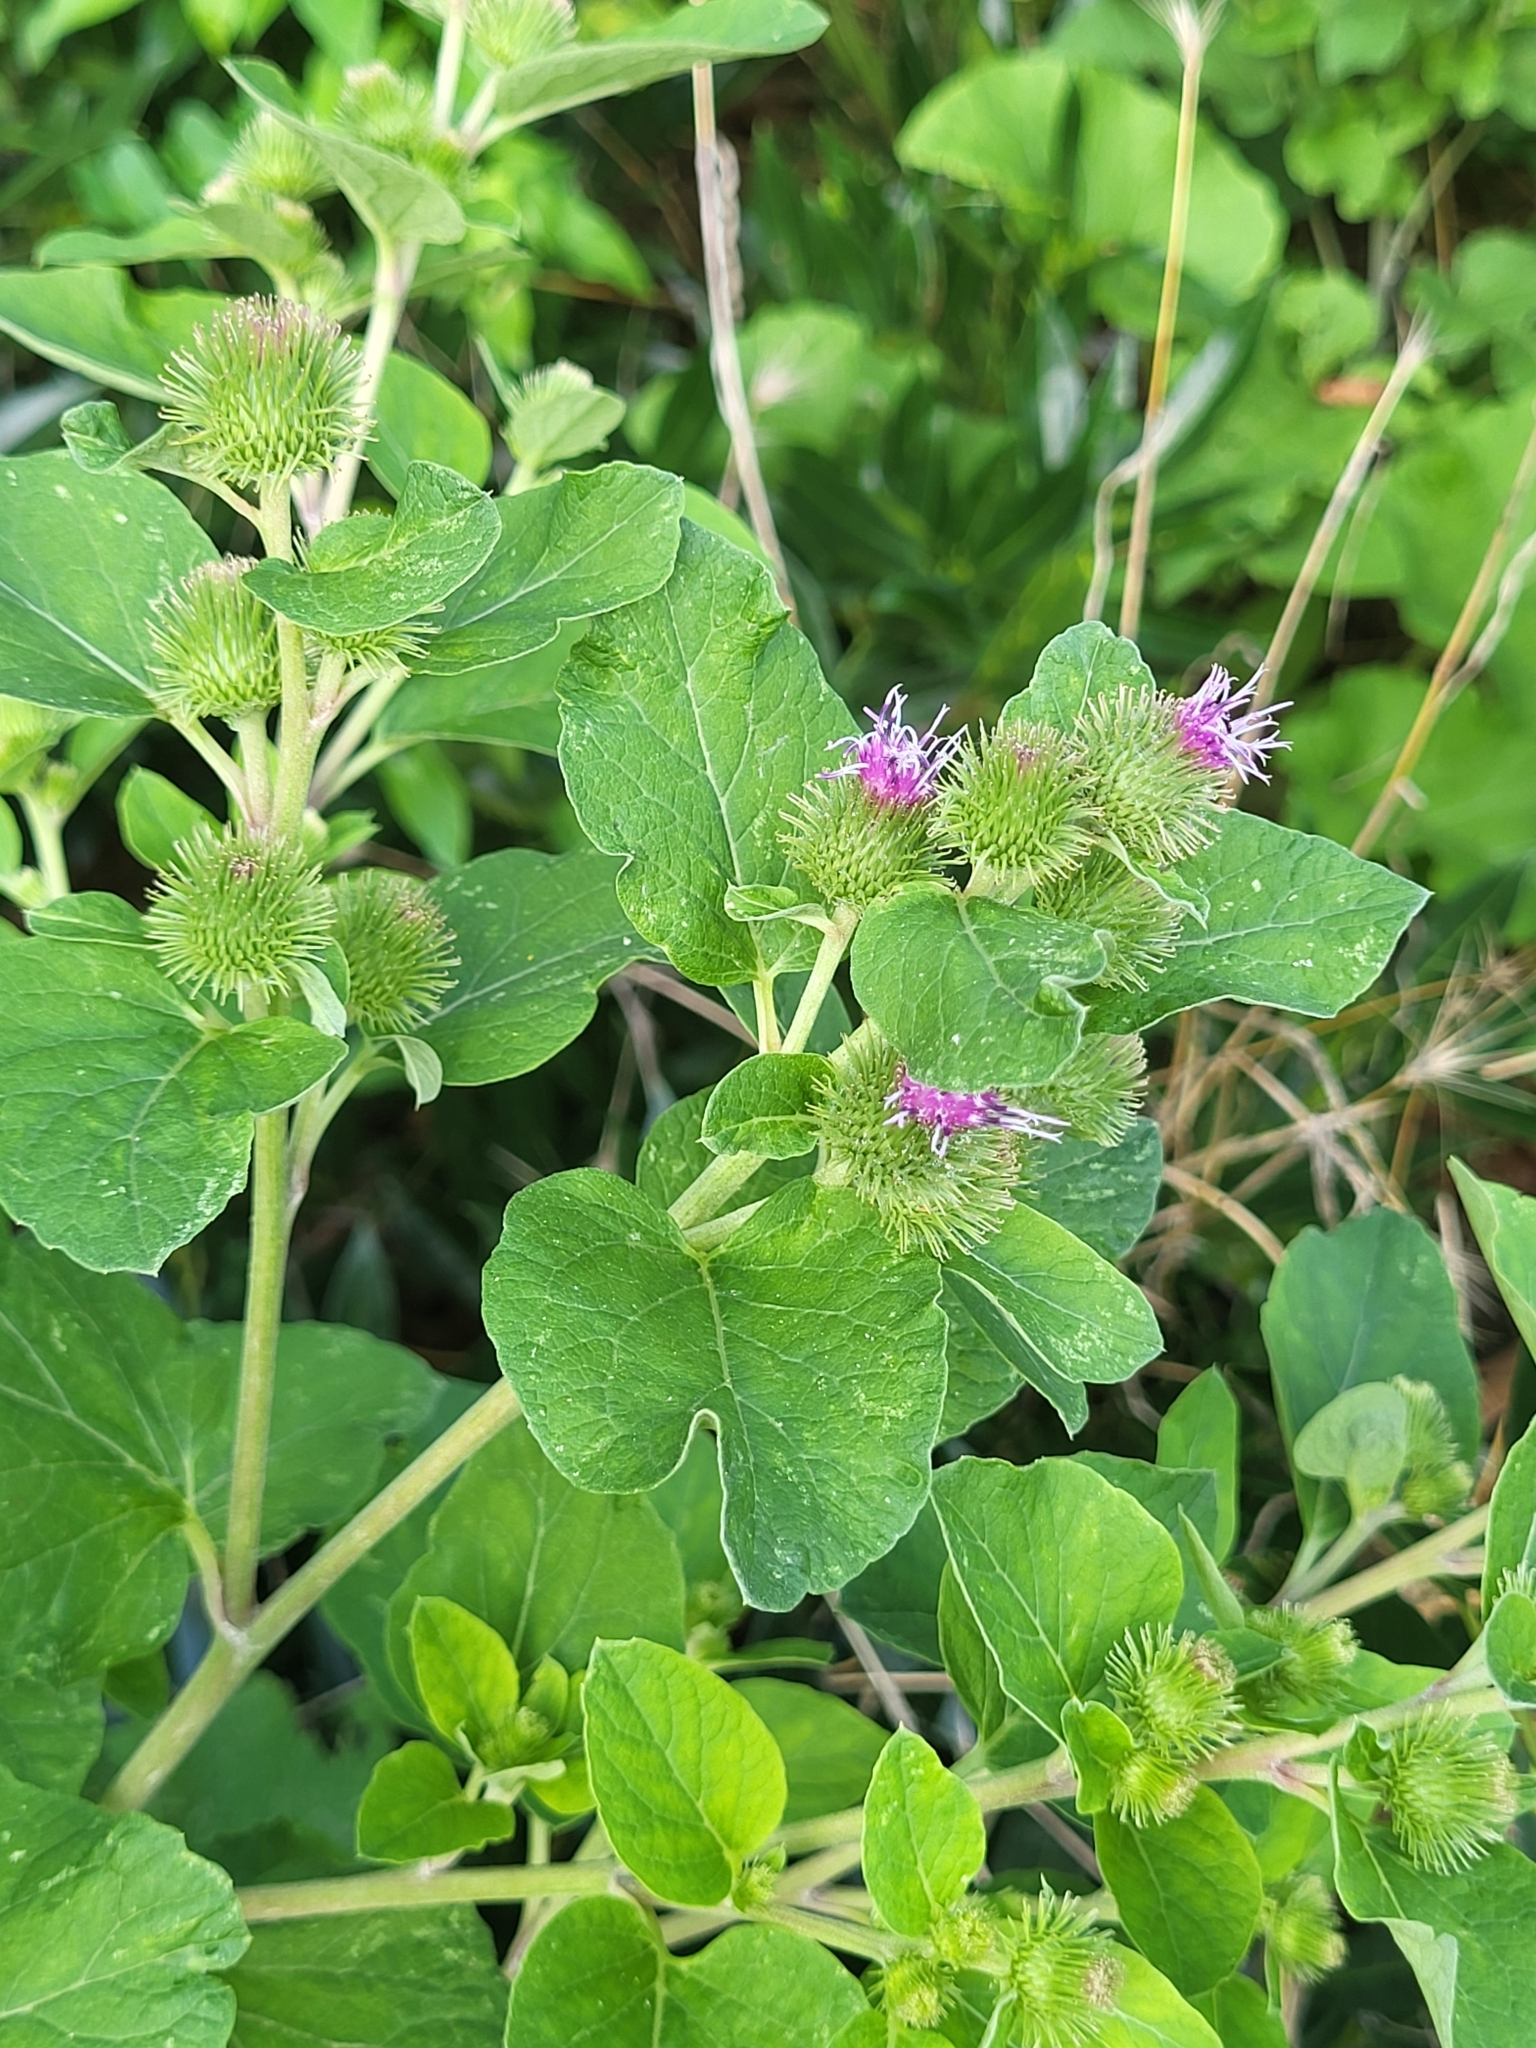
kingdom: Plantae
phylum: Tracheophyta
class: Magnoliopsida
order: Asterales
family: Asteraceae
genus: Arctium
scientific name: Arctium minus
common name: Lesser burdock
